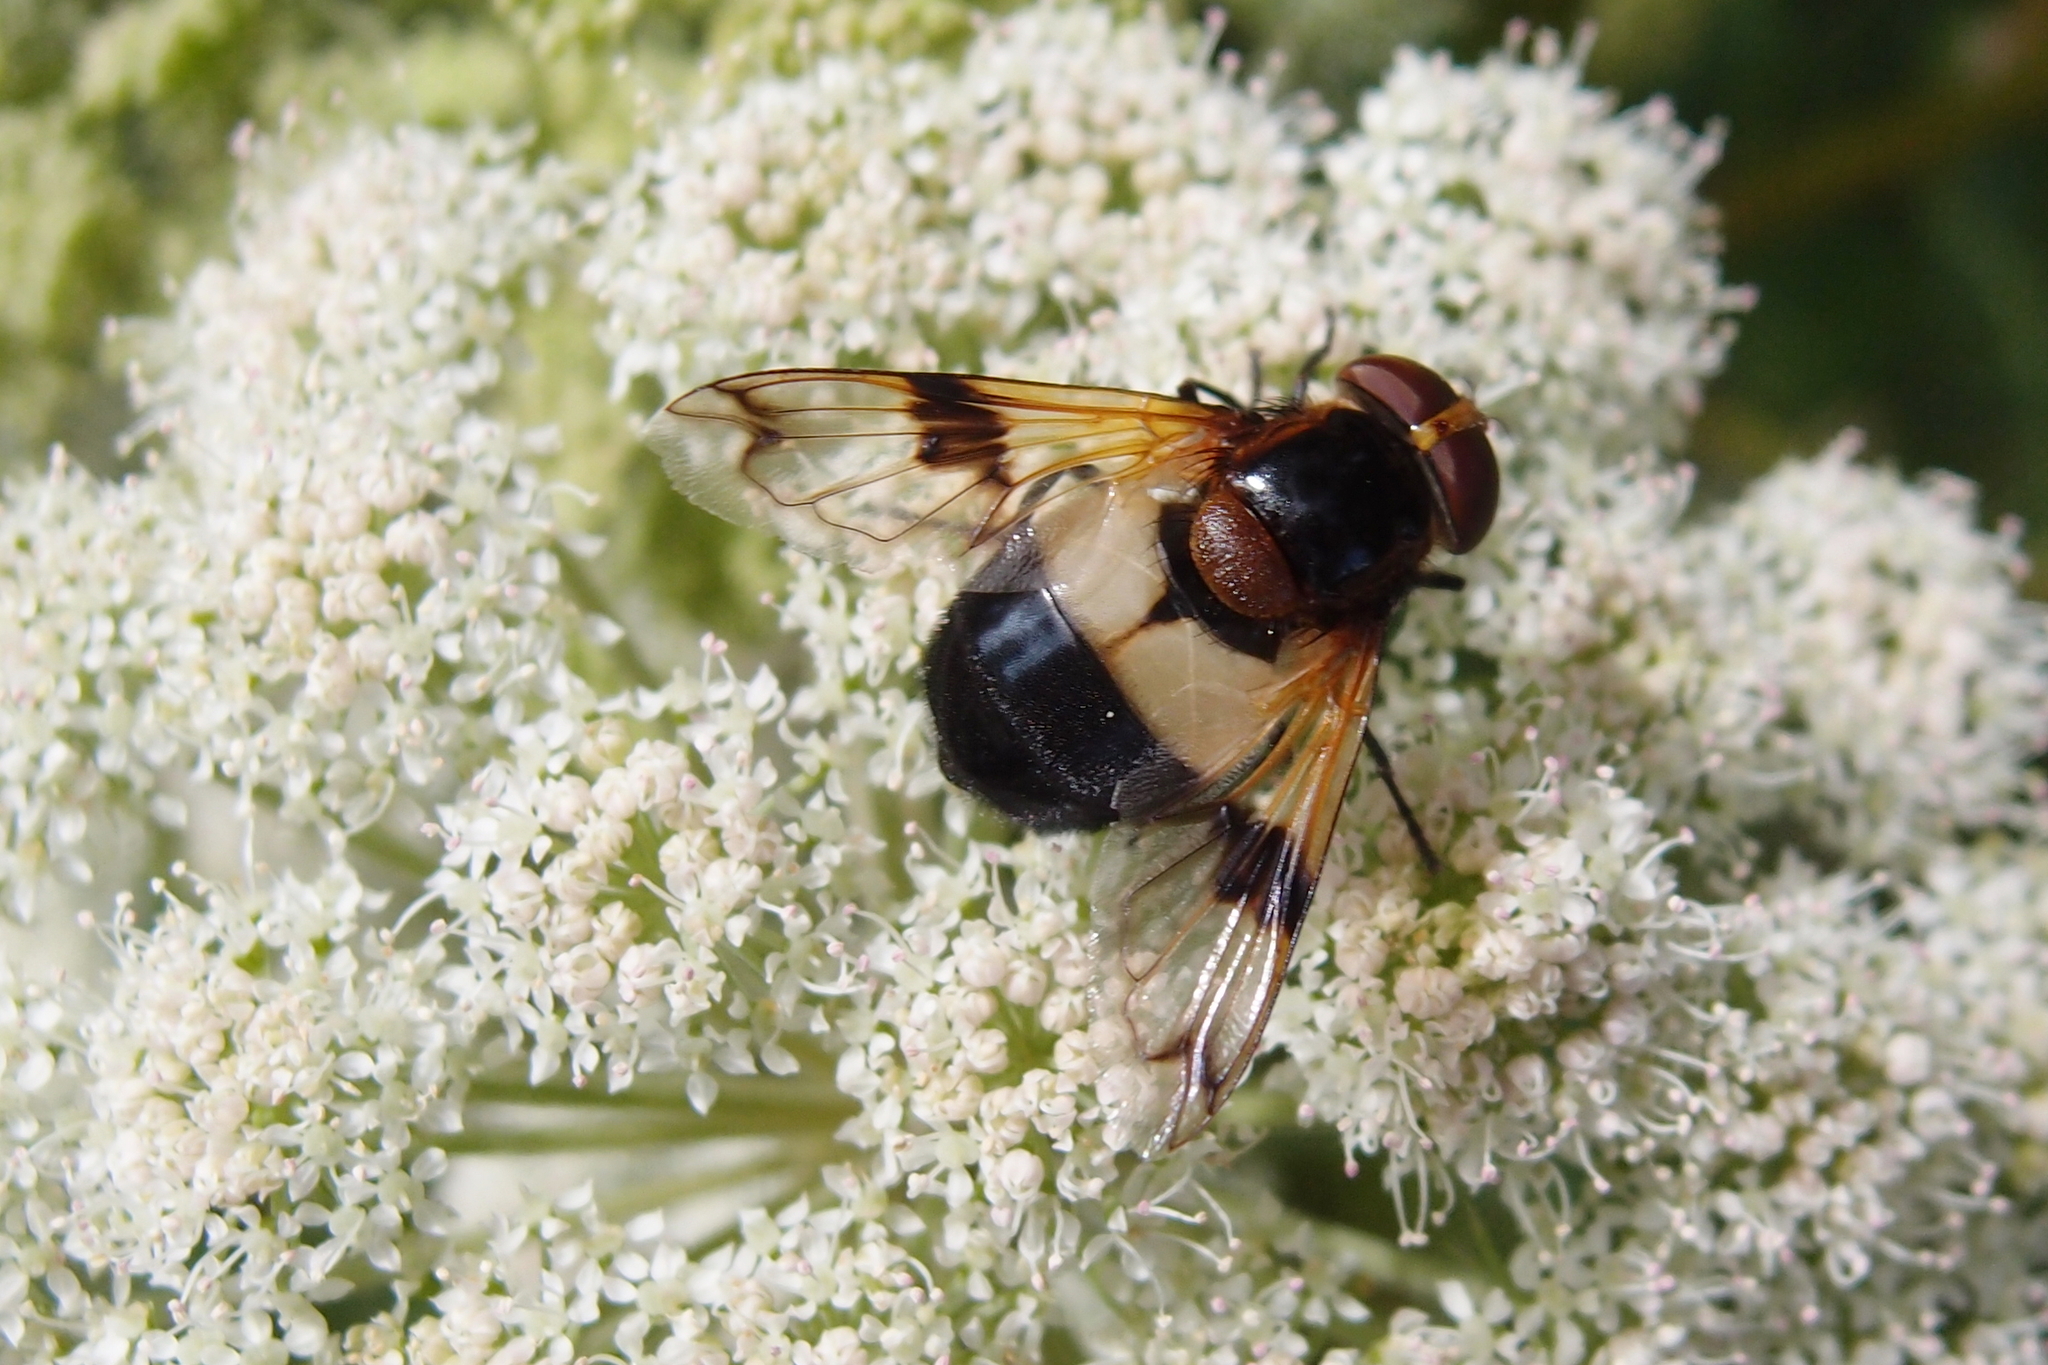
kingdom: Animalia
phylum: Arthropoda
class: Insecta
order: Diptera
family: Syrphidae
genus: Volucella
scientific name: Volucella pellucens
